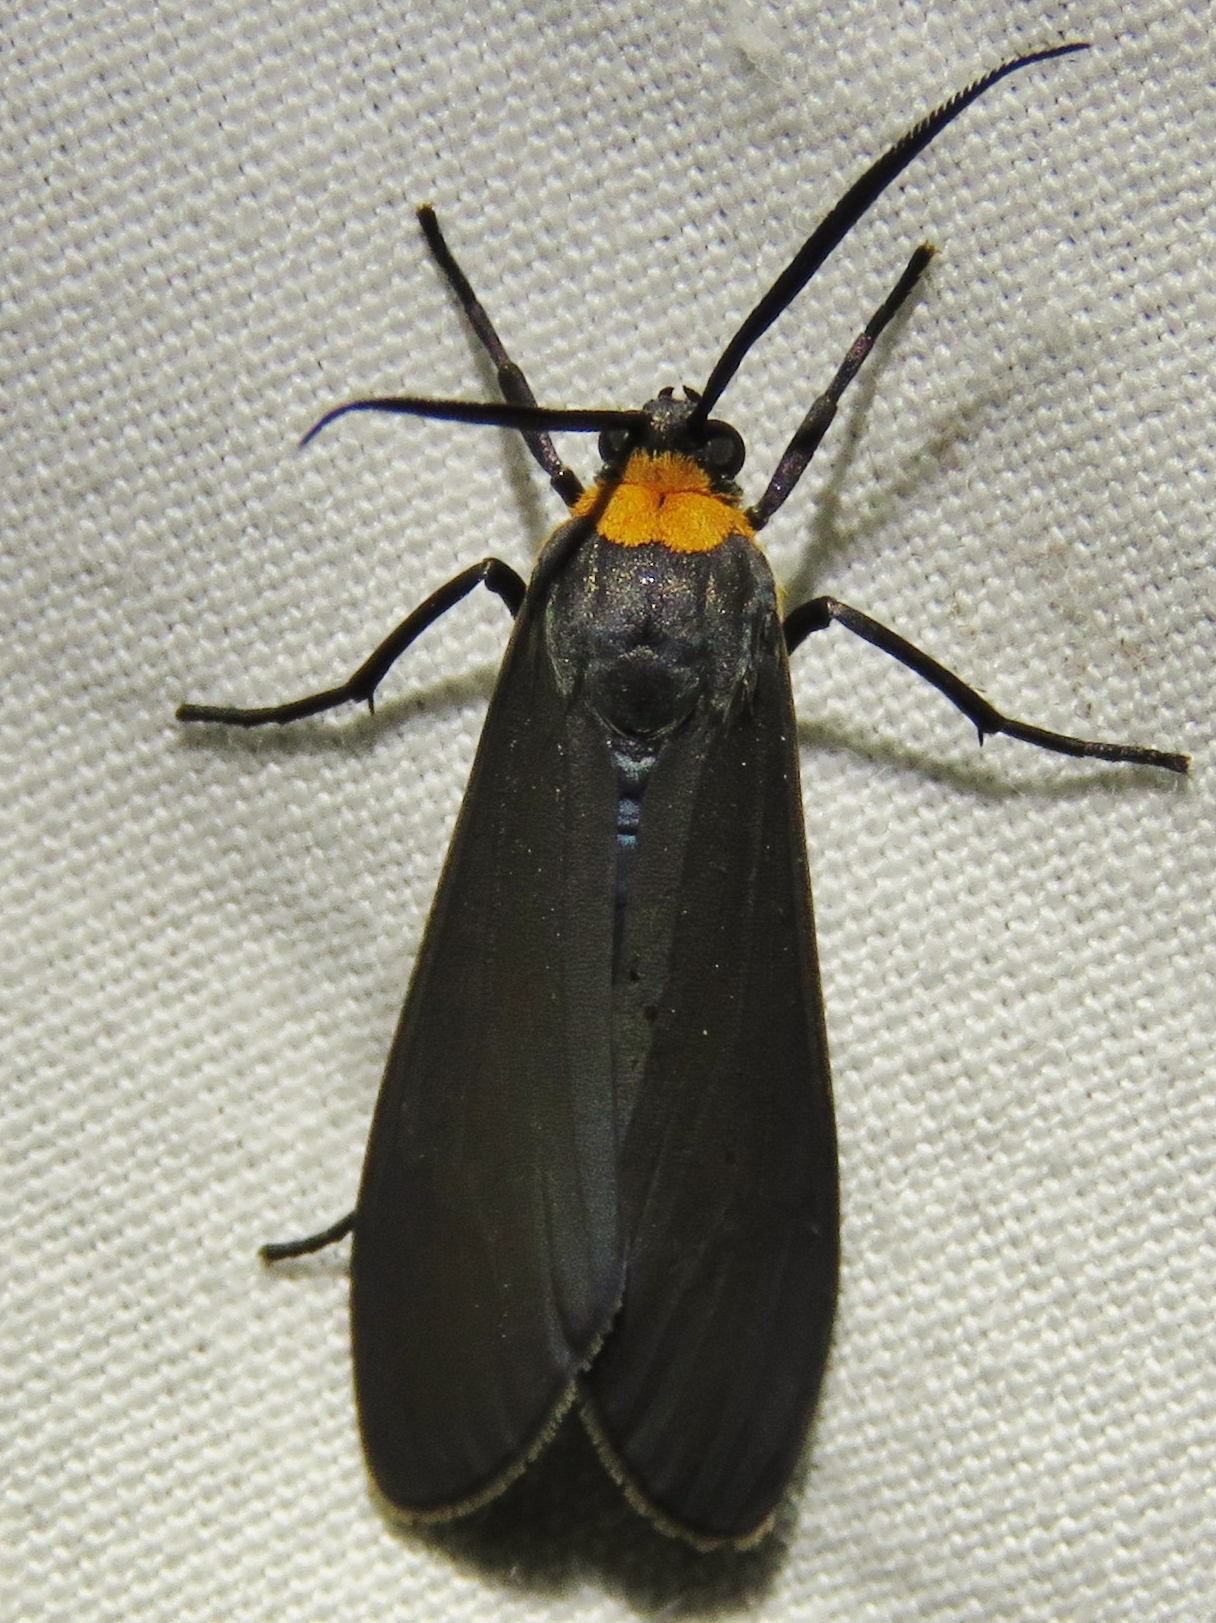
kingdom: Animalia
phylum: Arthropoda
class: Insecta
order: Lepidoptera
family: Erebidae
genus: Cisseps
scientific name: Cisseps fulvicollis
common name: Yellow-collared scape moth
